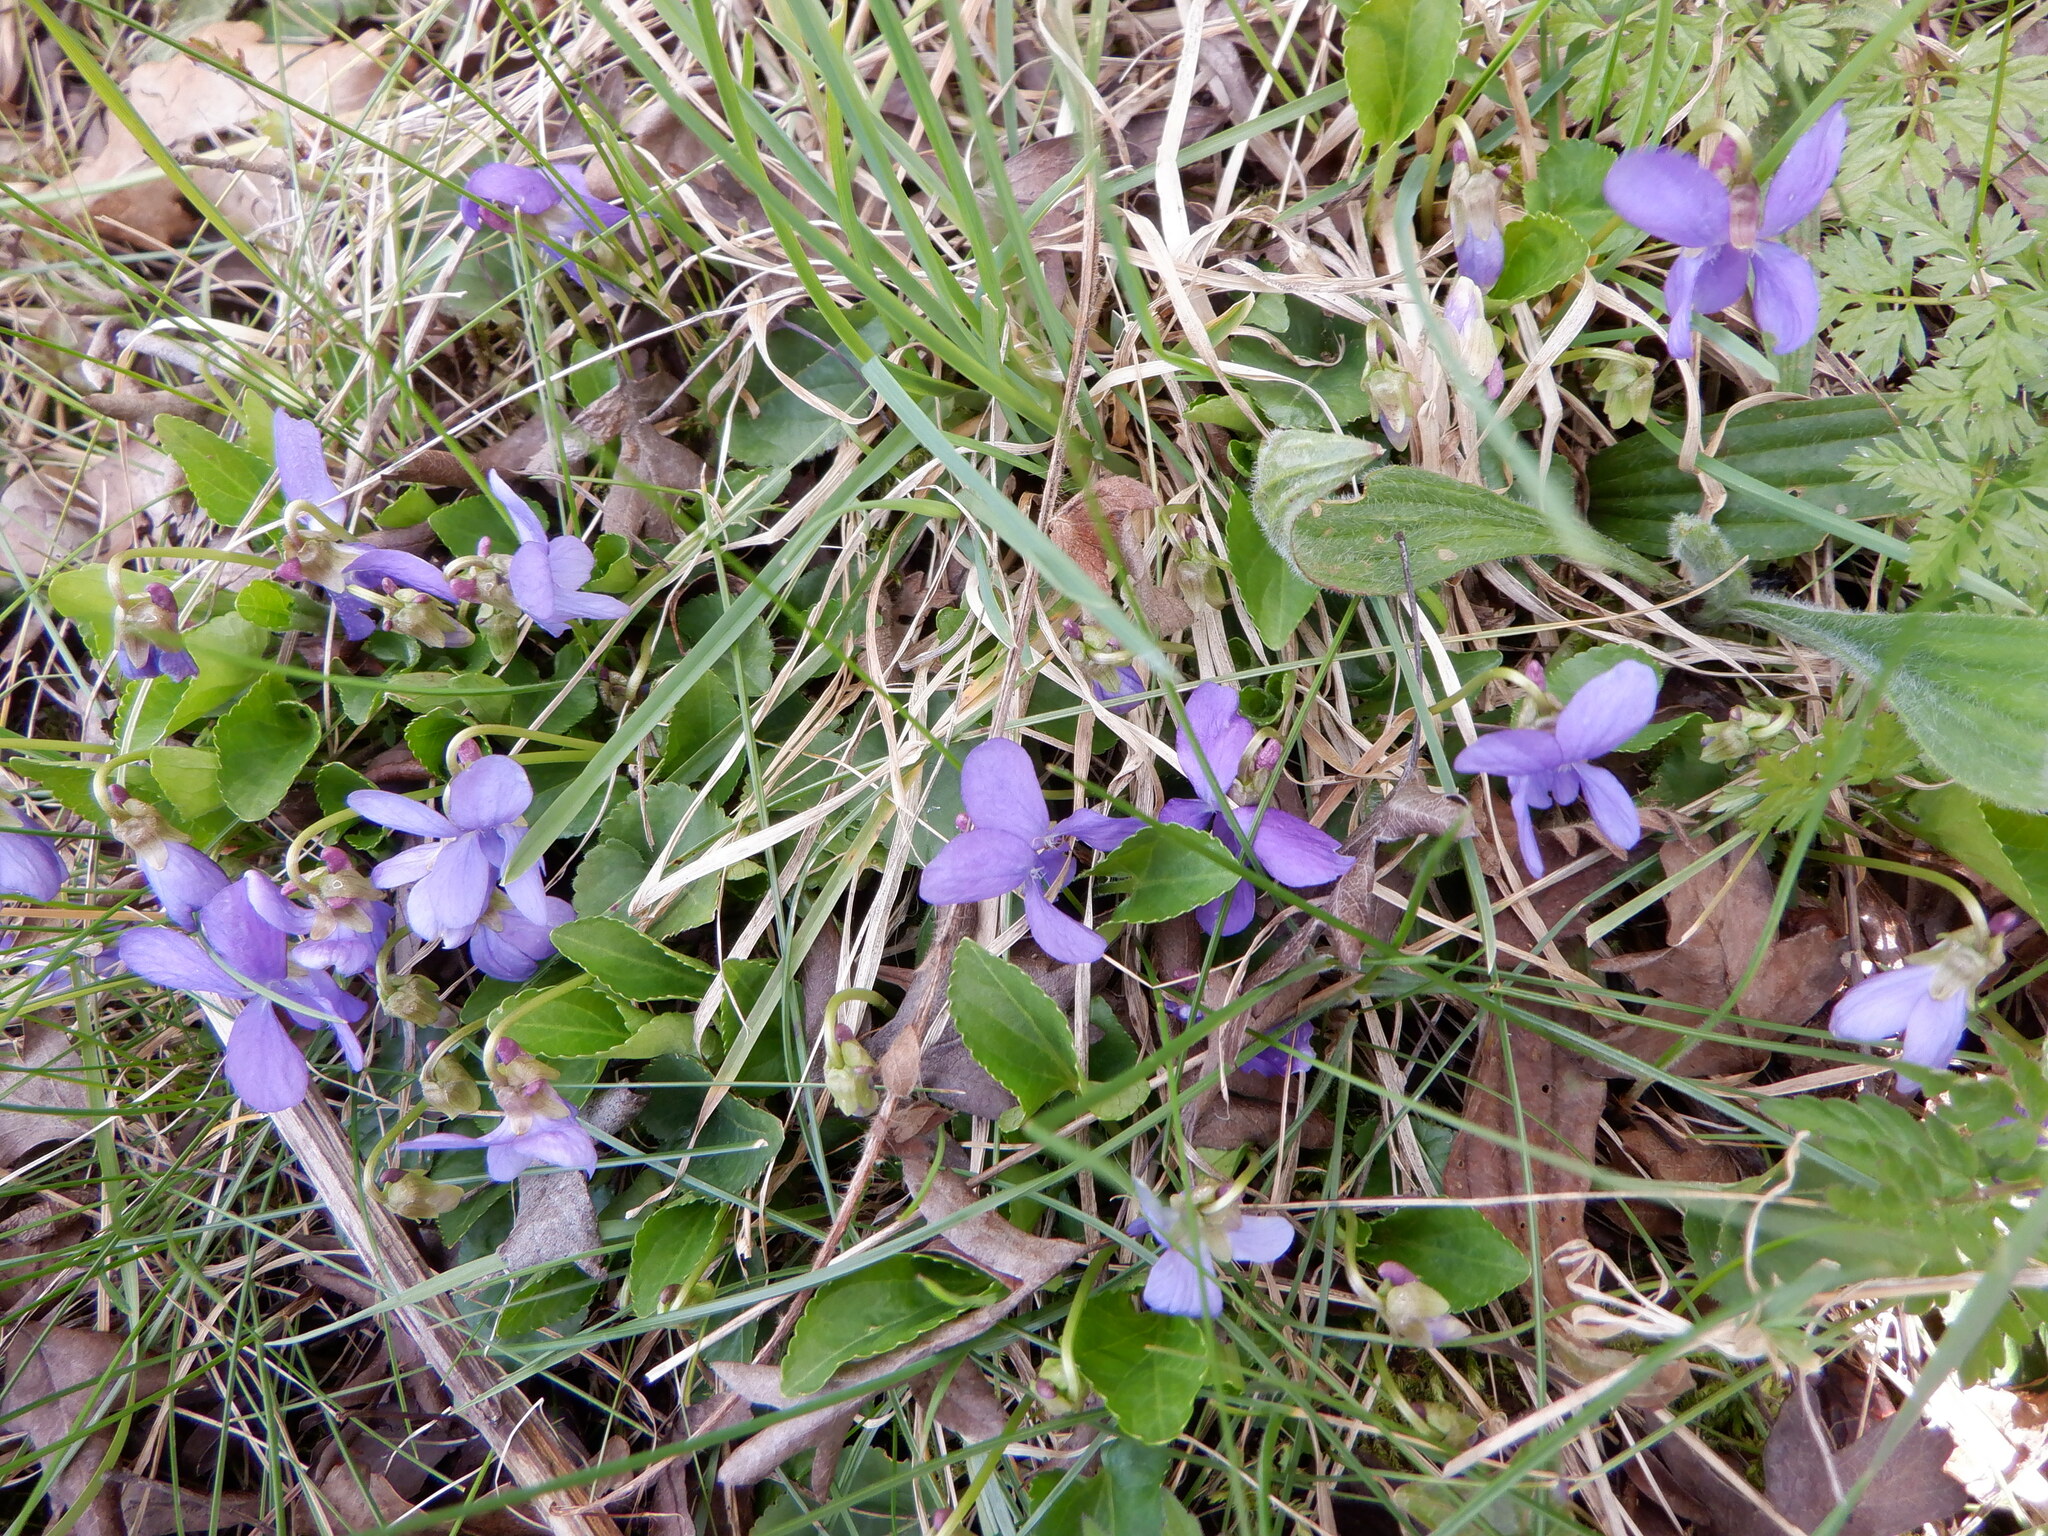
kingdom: Plantae
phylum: Tracheophyta
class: Magnoliopsida
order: Malpighiales
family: Violaceae
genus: Viola
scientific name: Viola odorata
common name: Sweet violet
